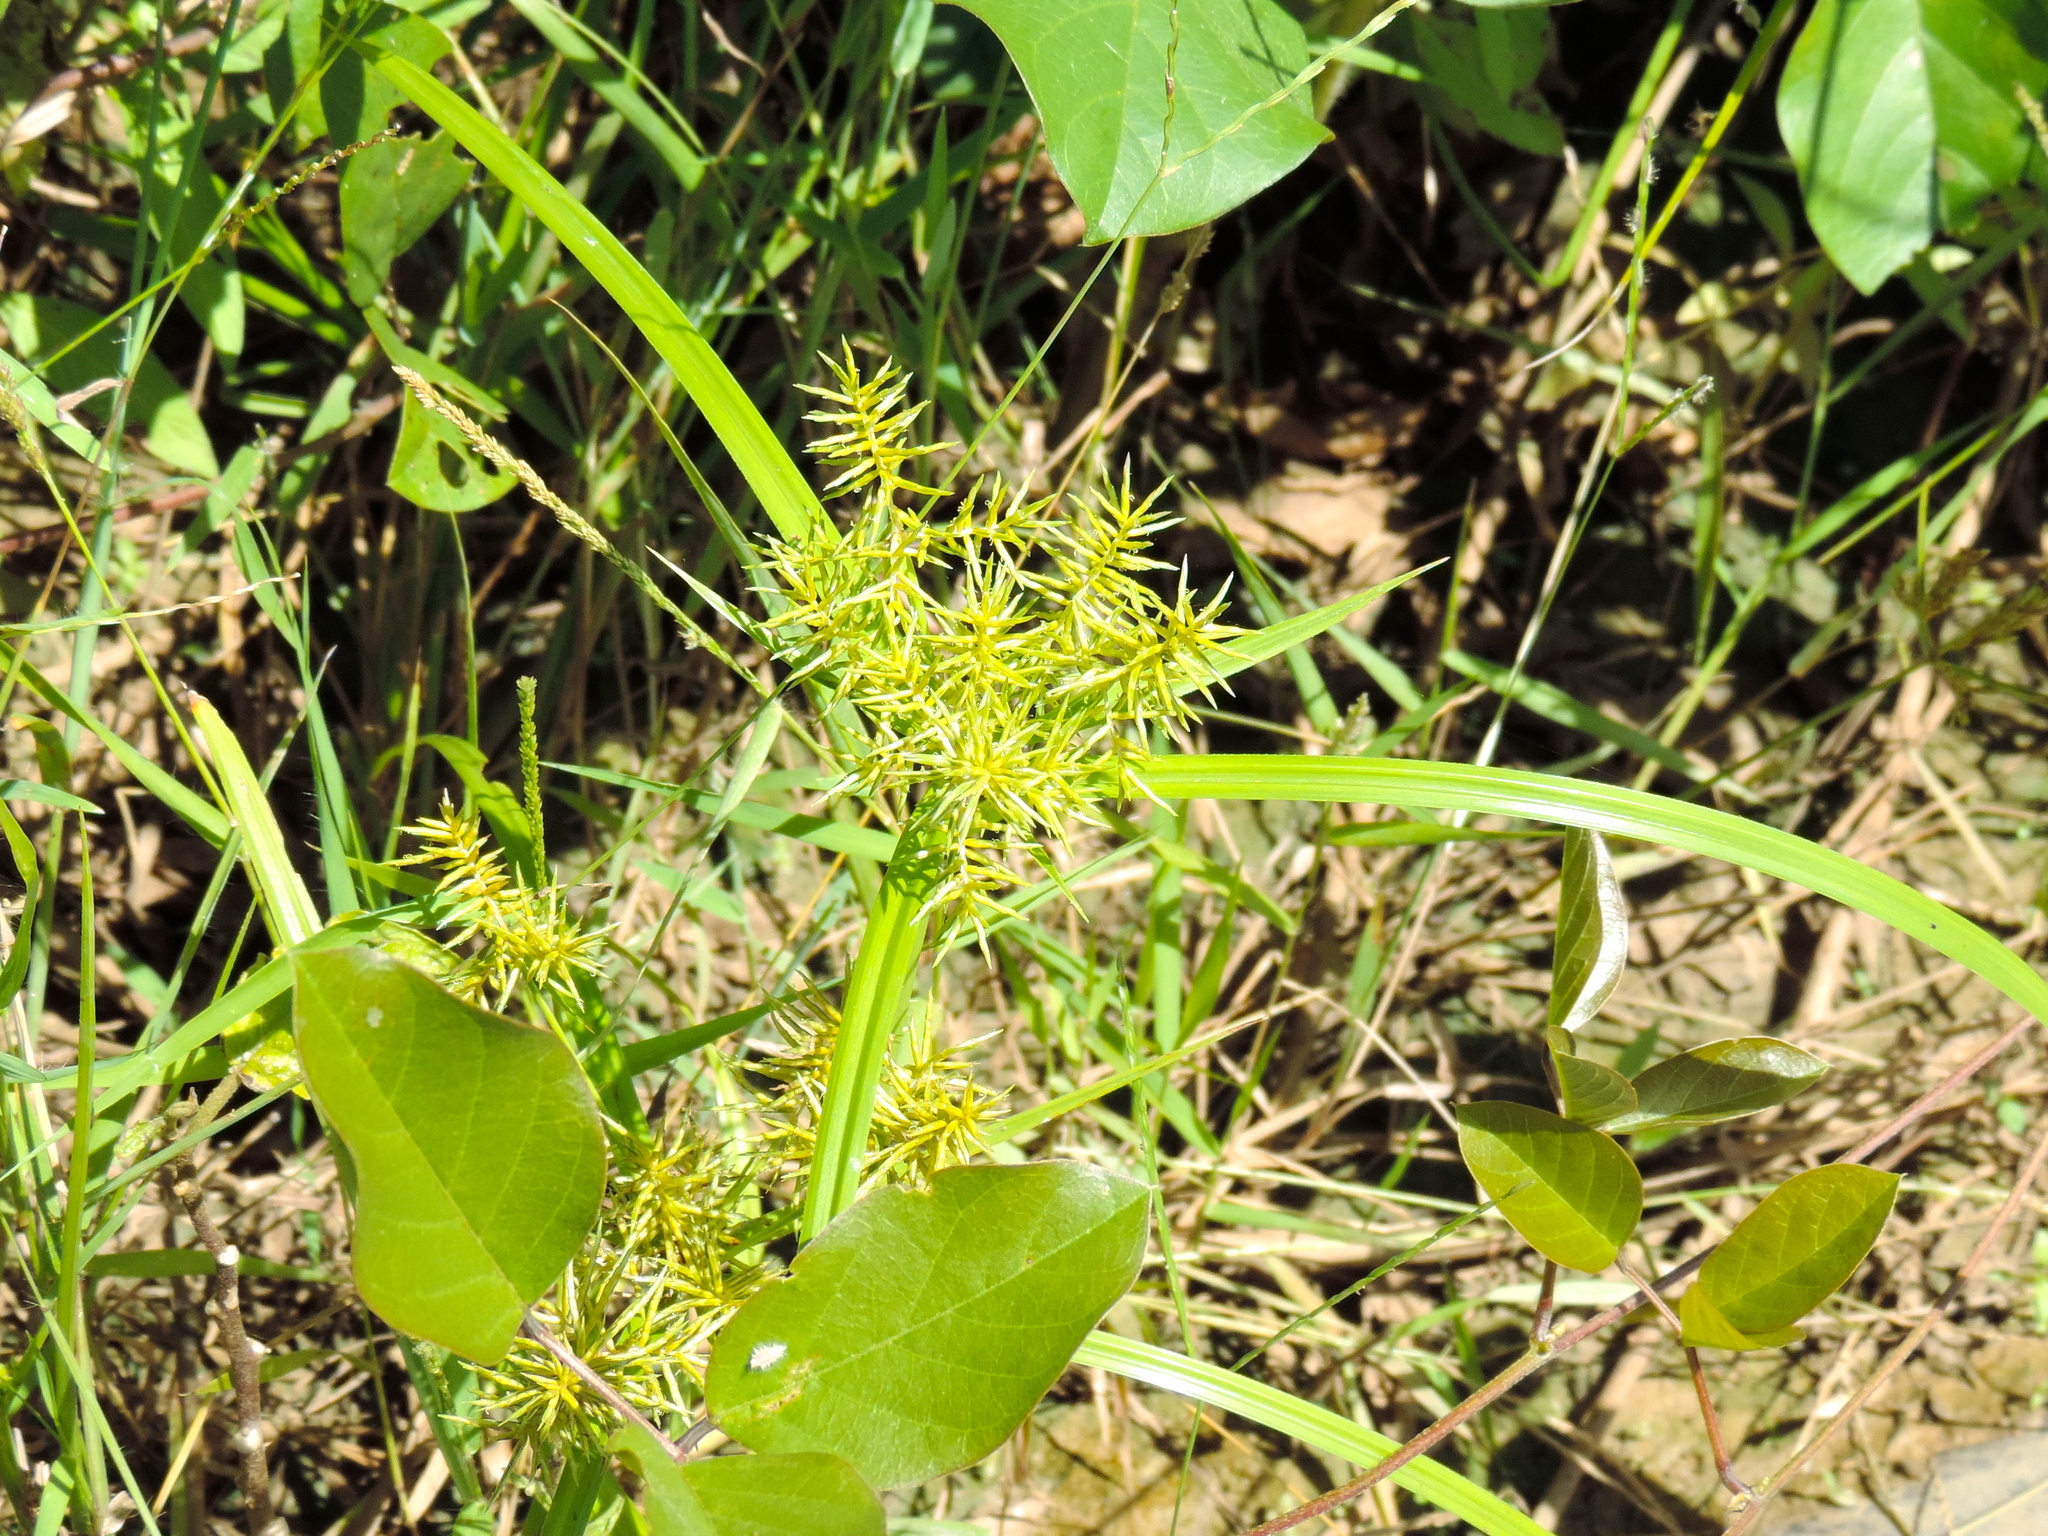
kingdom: Plantae
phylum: Tracheophyta
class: Liliopsida
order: Poales
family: Cyperaceae
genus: Cyperus
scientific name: Cyperus
